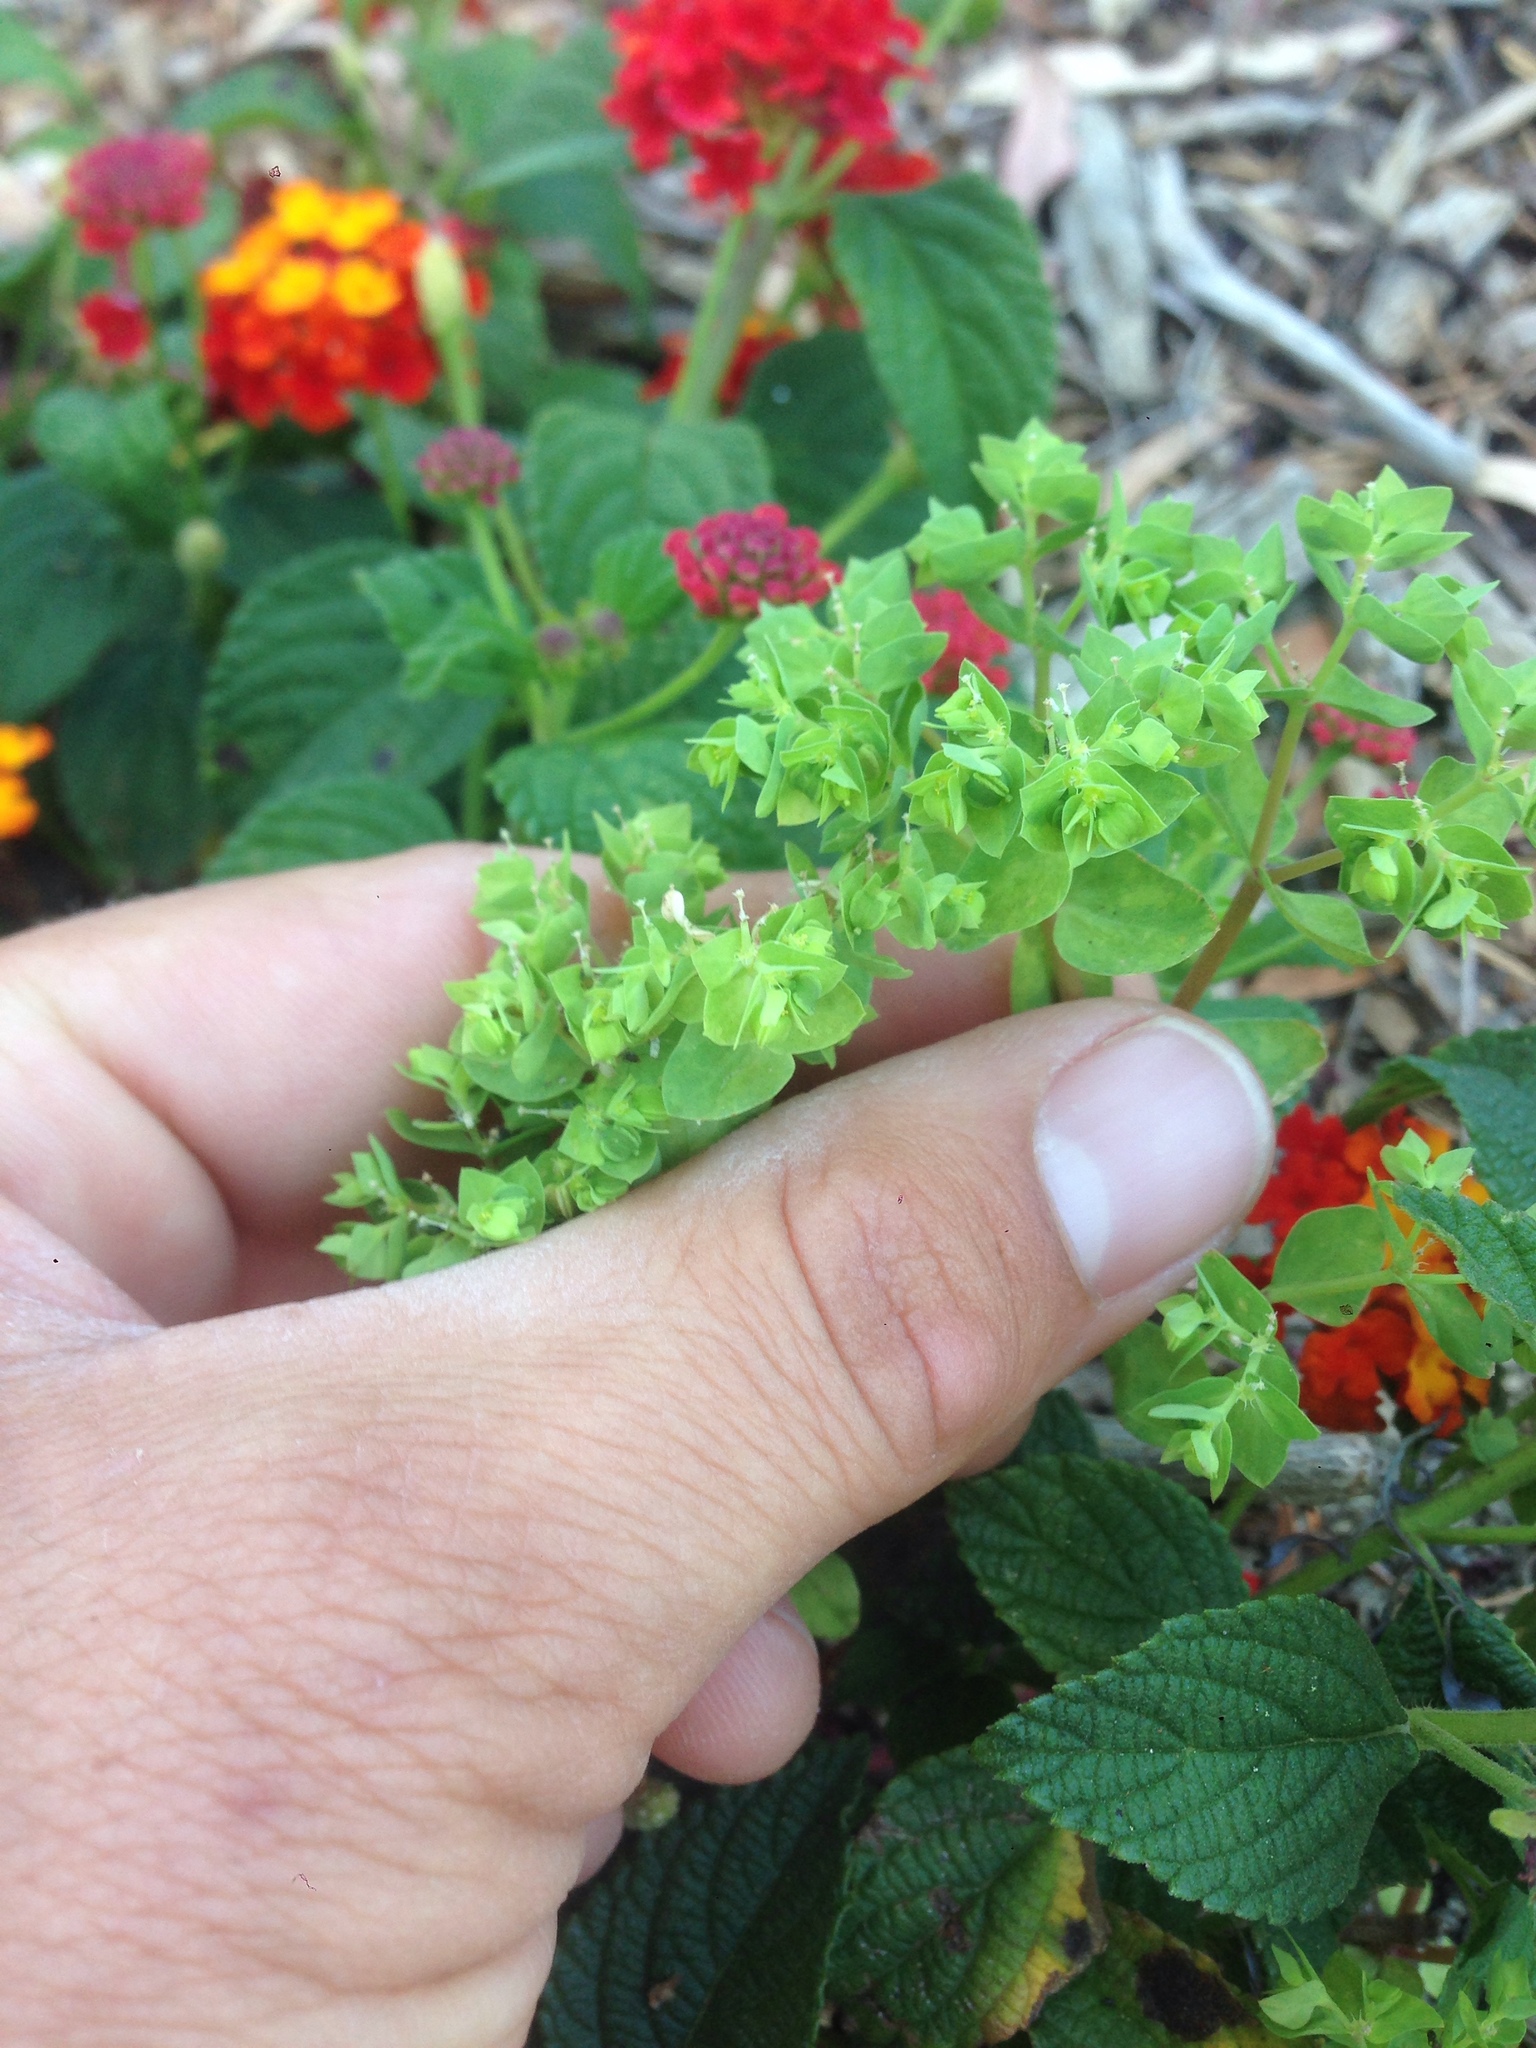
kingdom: Plantae
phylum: Tracheophyta
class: Magnoliopsida
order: Malpighiales
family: Euphorbiaceae
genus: Euphorbia
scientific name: Euphorbia peplus
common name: Petty spurge
